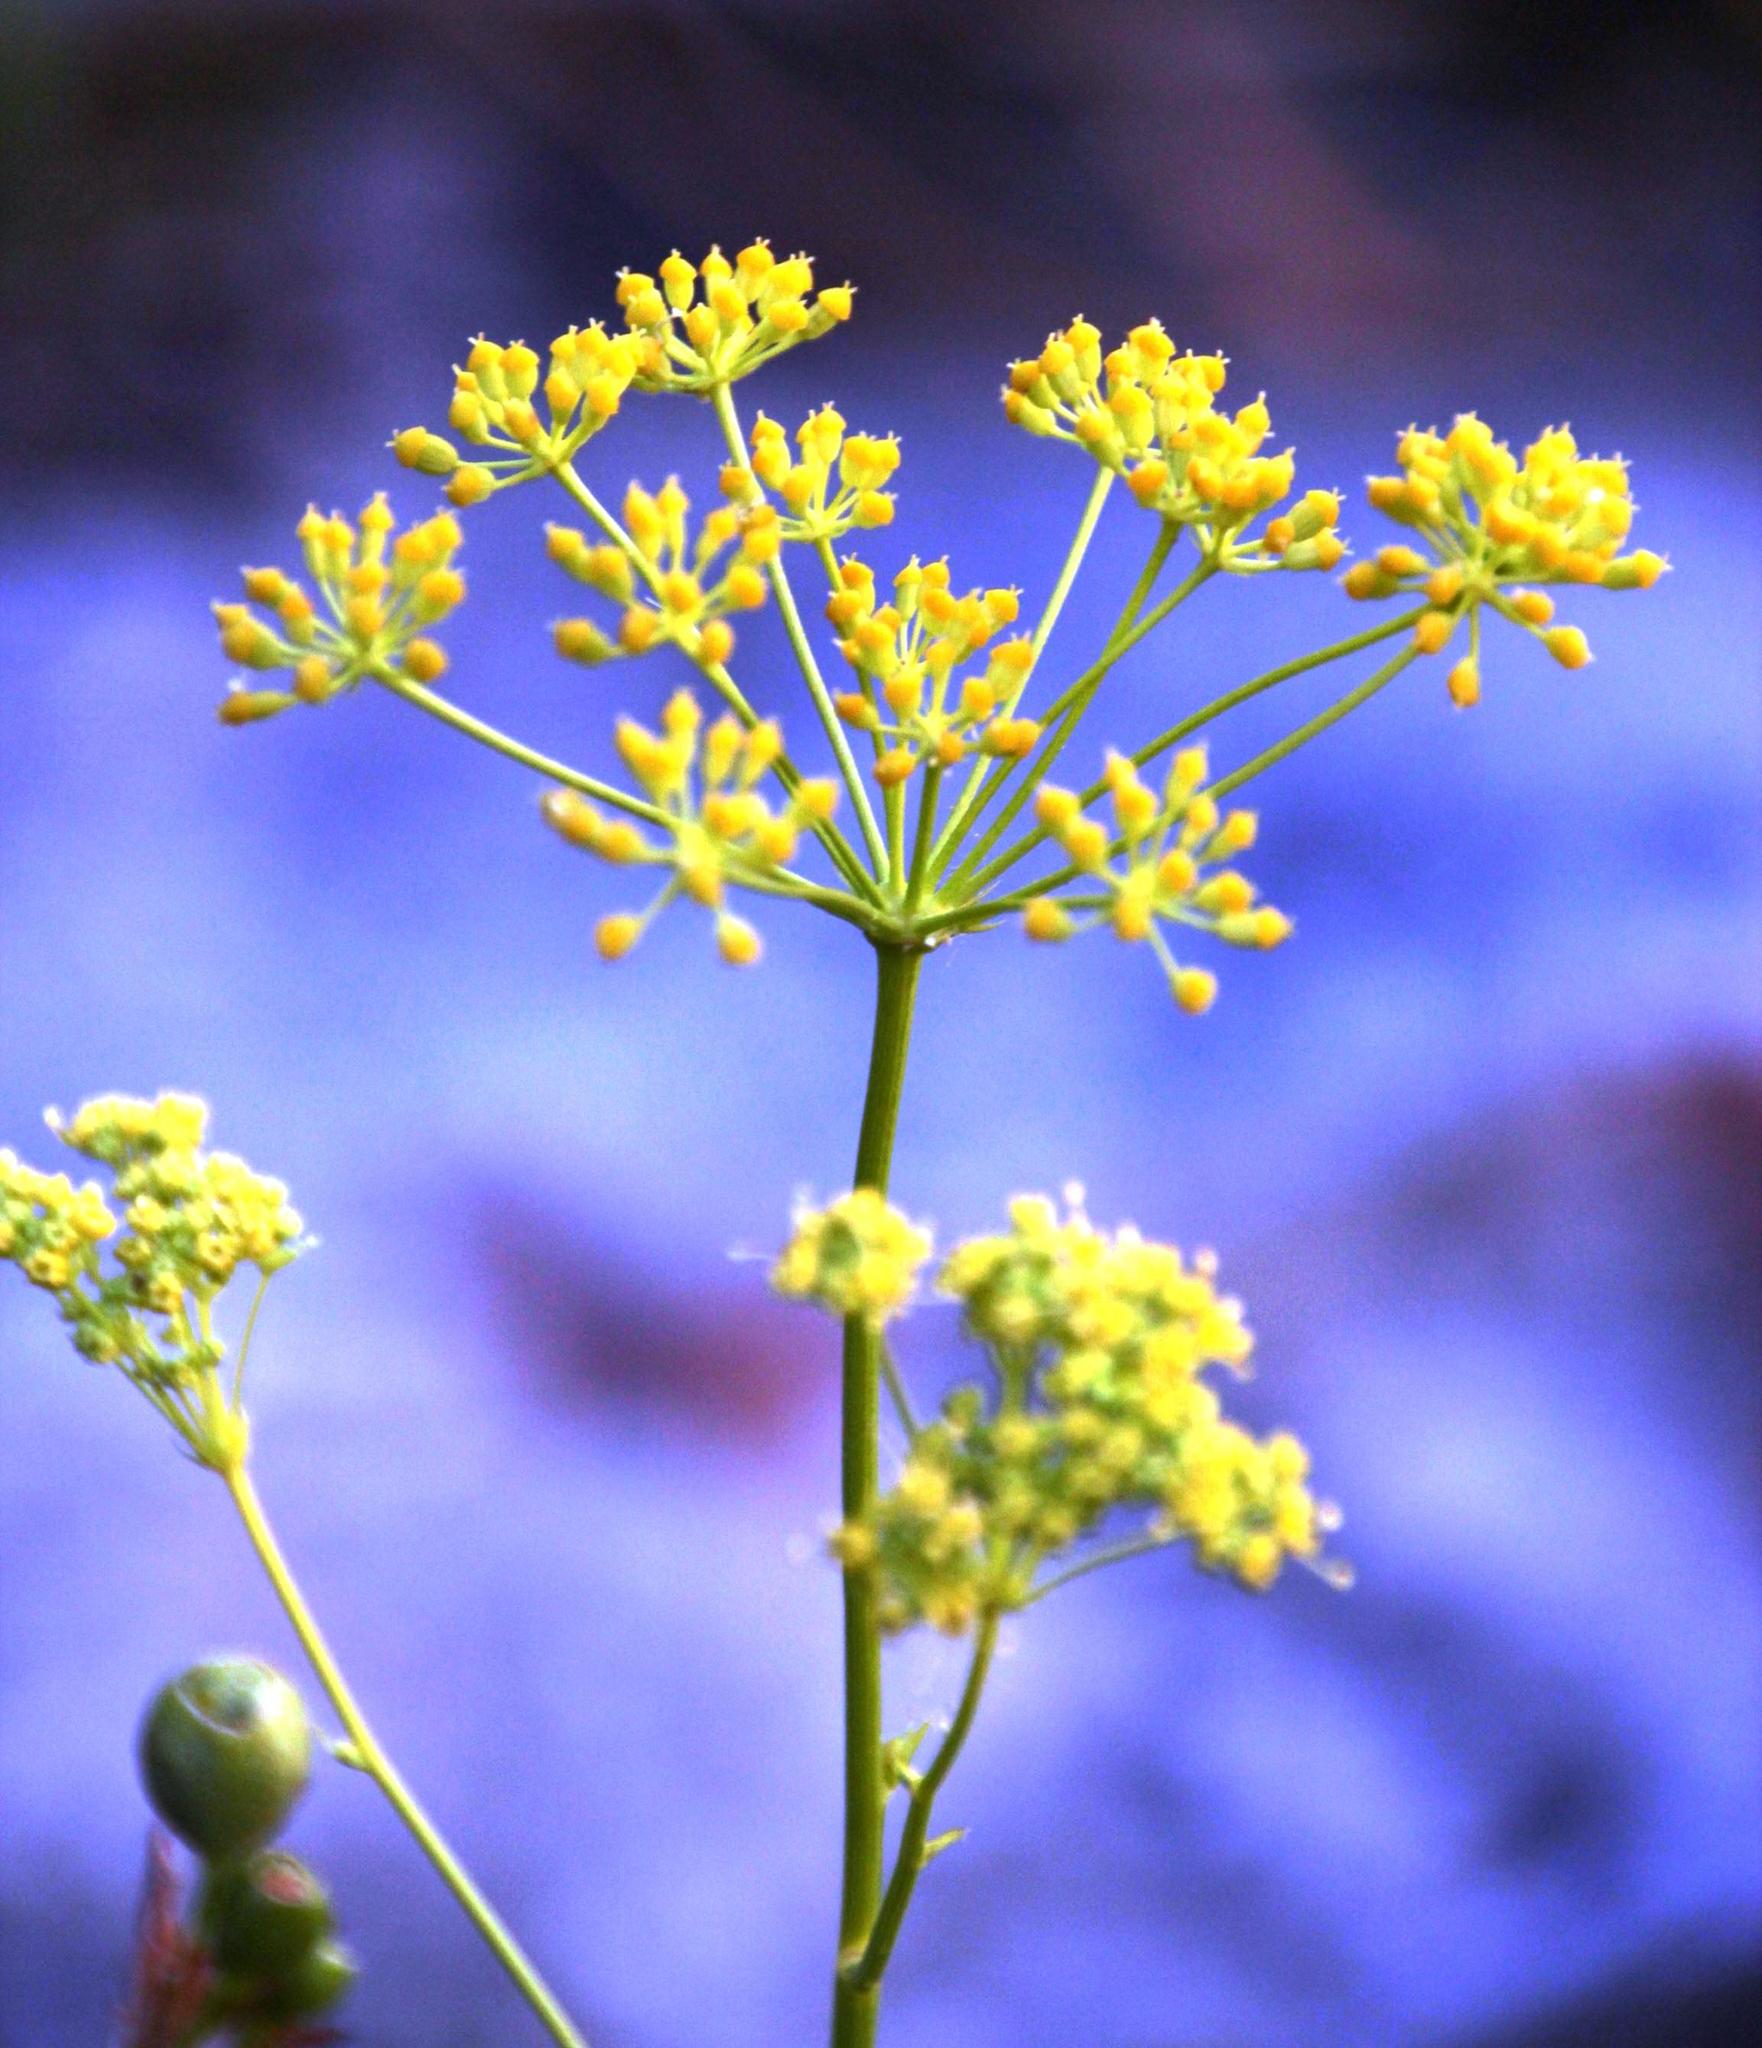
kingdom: Plantae
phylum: Tracheophyta
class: Magnoliopsida
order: Apiales
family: Apiaceae
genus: Glia
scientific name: Glia prolifera
